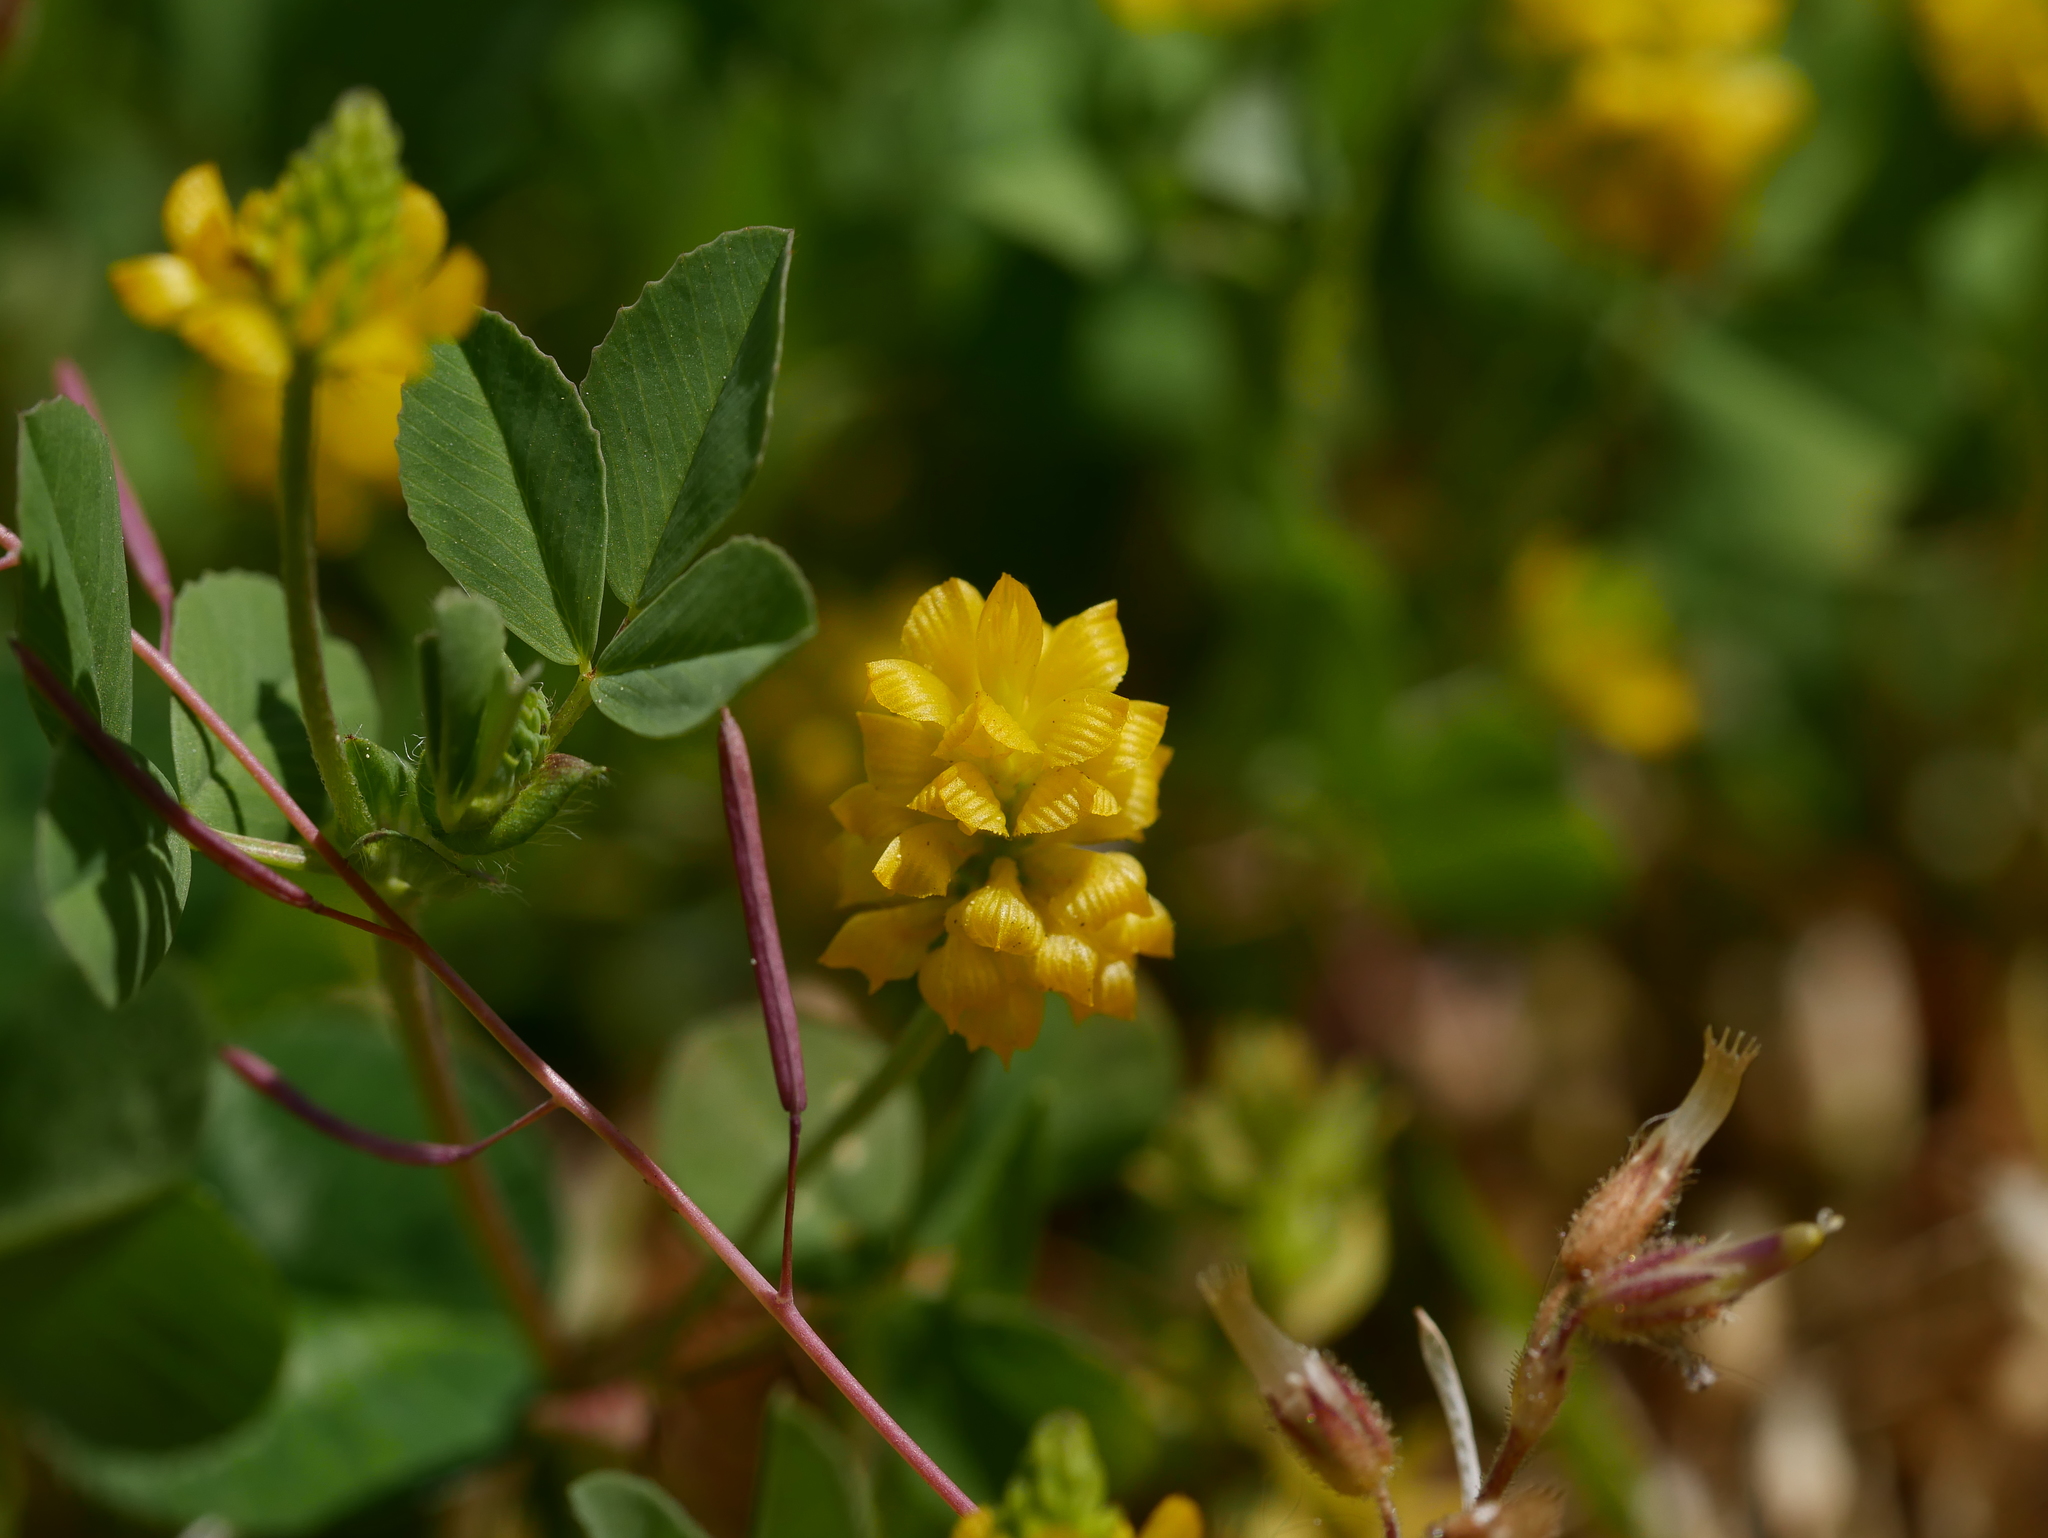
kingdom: Plantae
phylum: Tracheophyta
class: Magnoliopsida
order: Fabales
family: Fabaceae
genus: Trifolium
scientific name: Trifolium campestre
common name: Field clover
